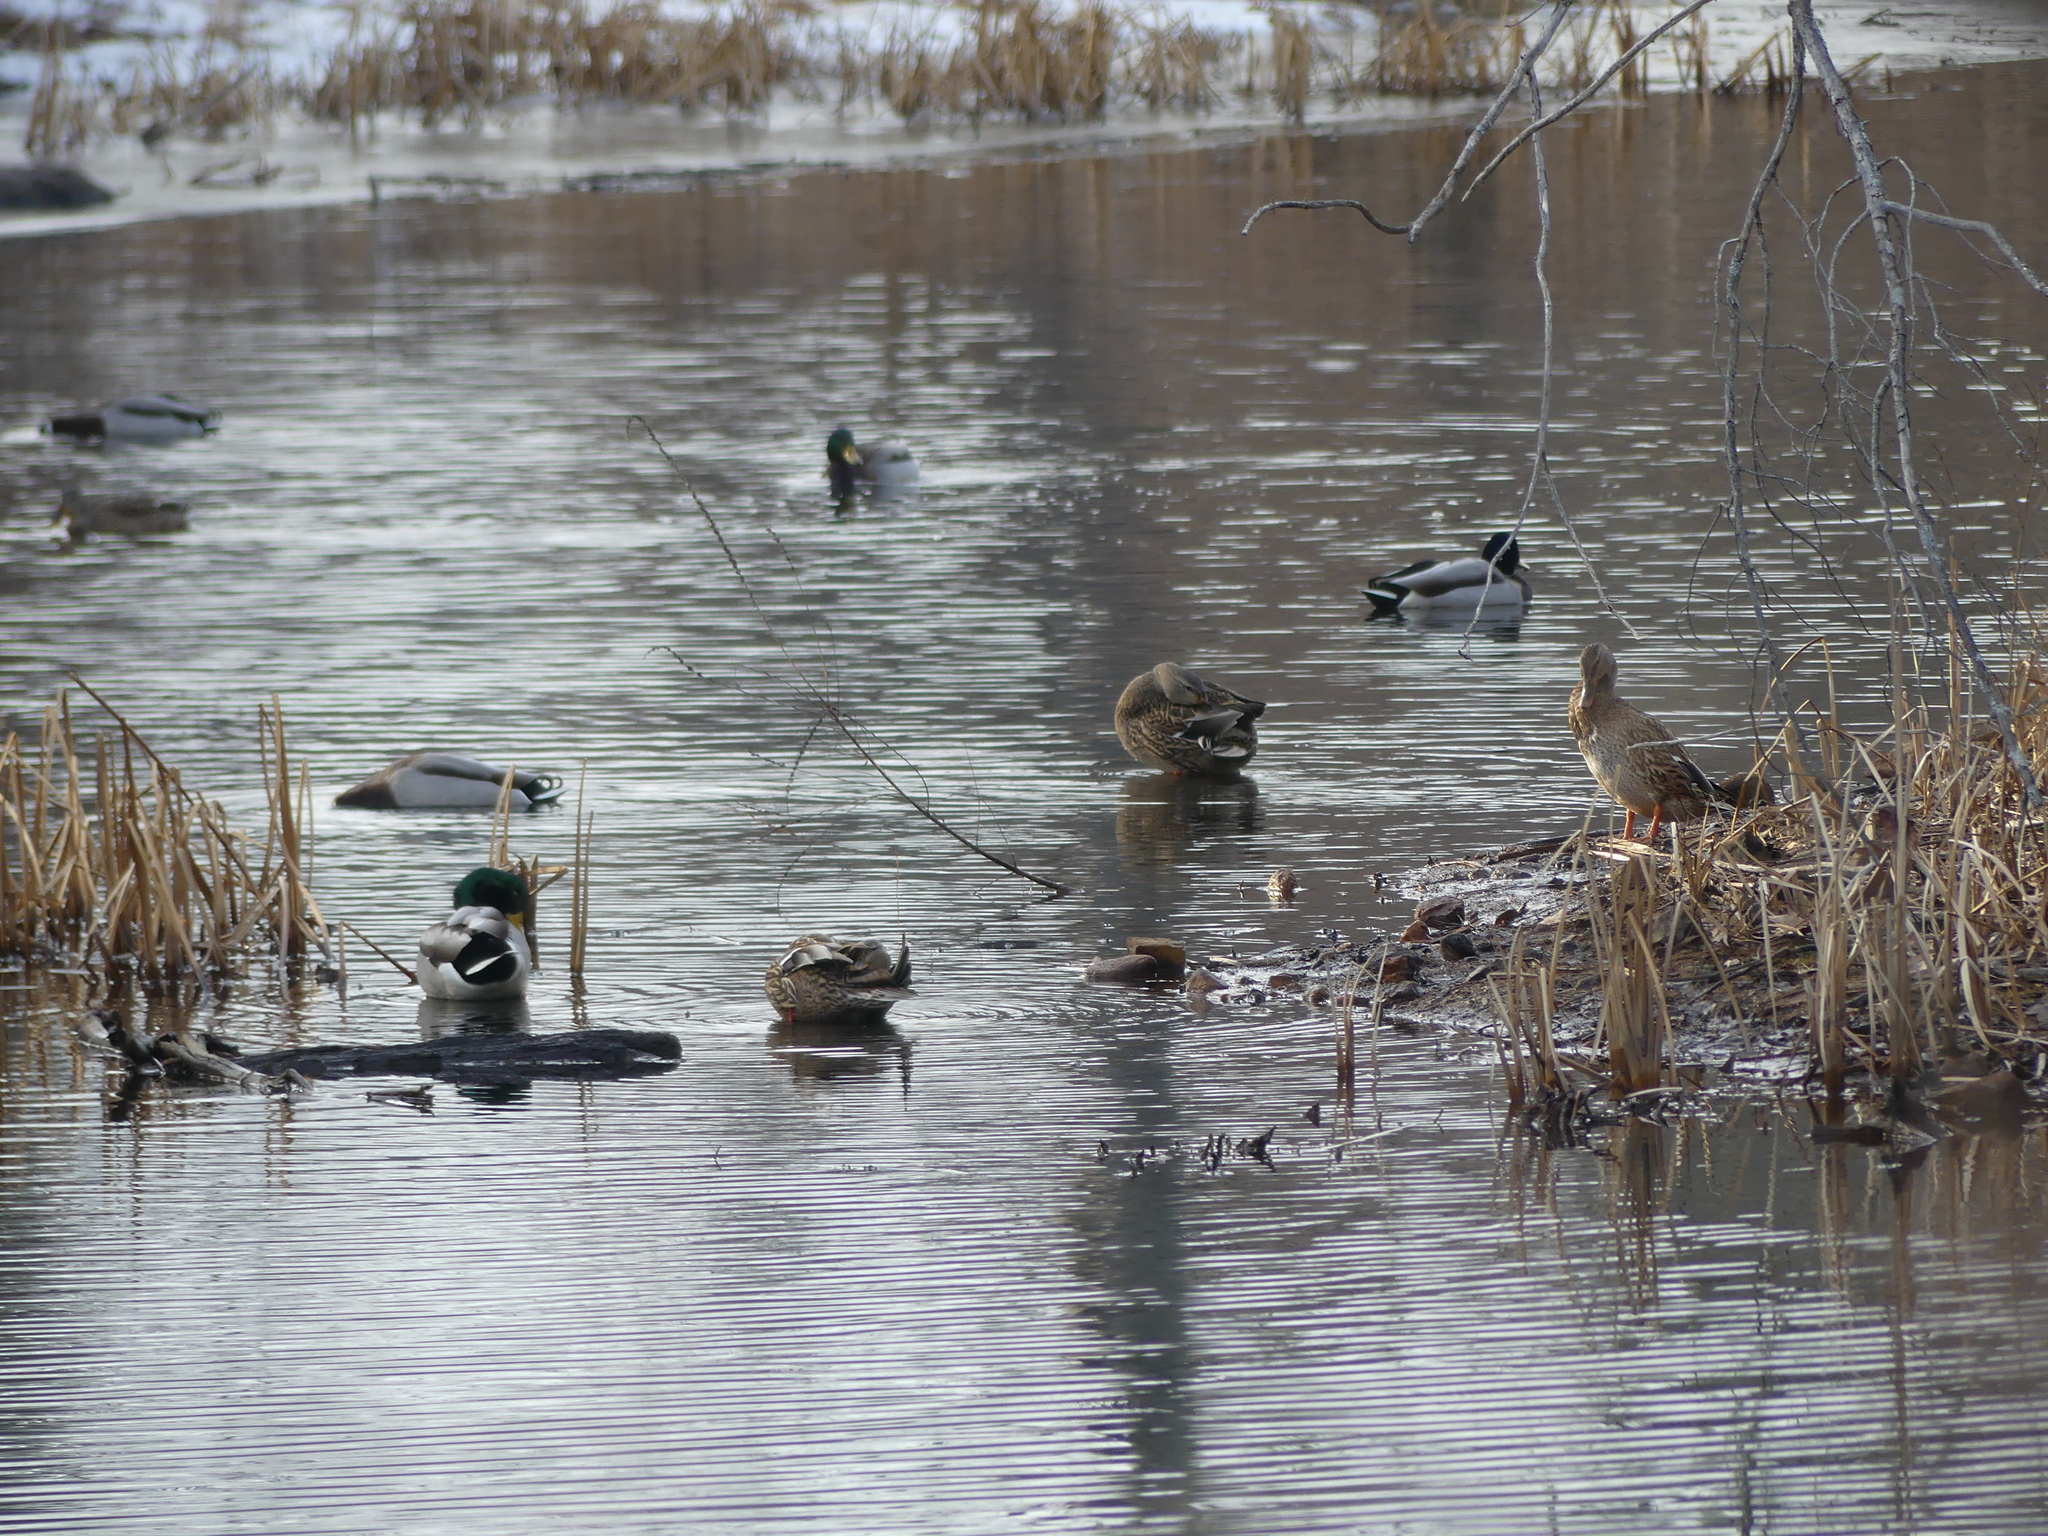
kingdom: Animalia
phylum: Chordata
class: Aves
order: Anseriformes
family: Anatidae
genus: Anas
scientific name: Anas platyrhynchos
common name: Mallard
